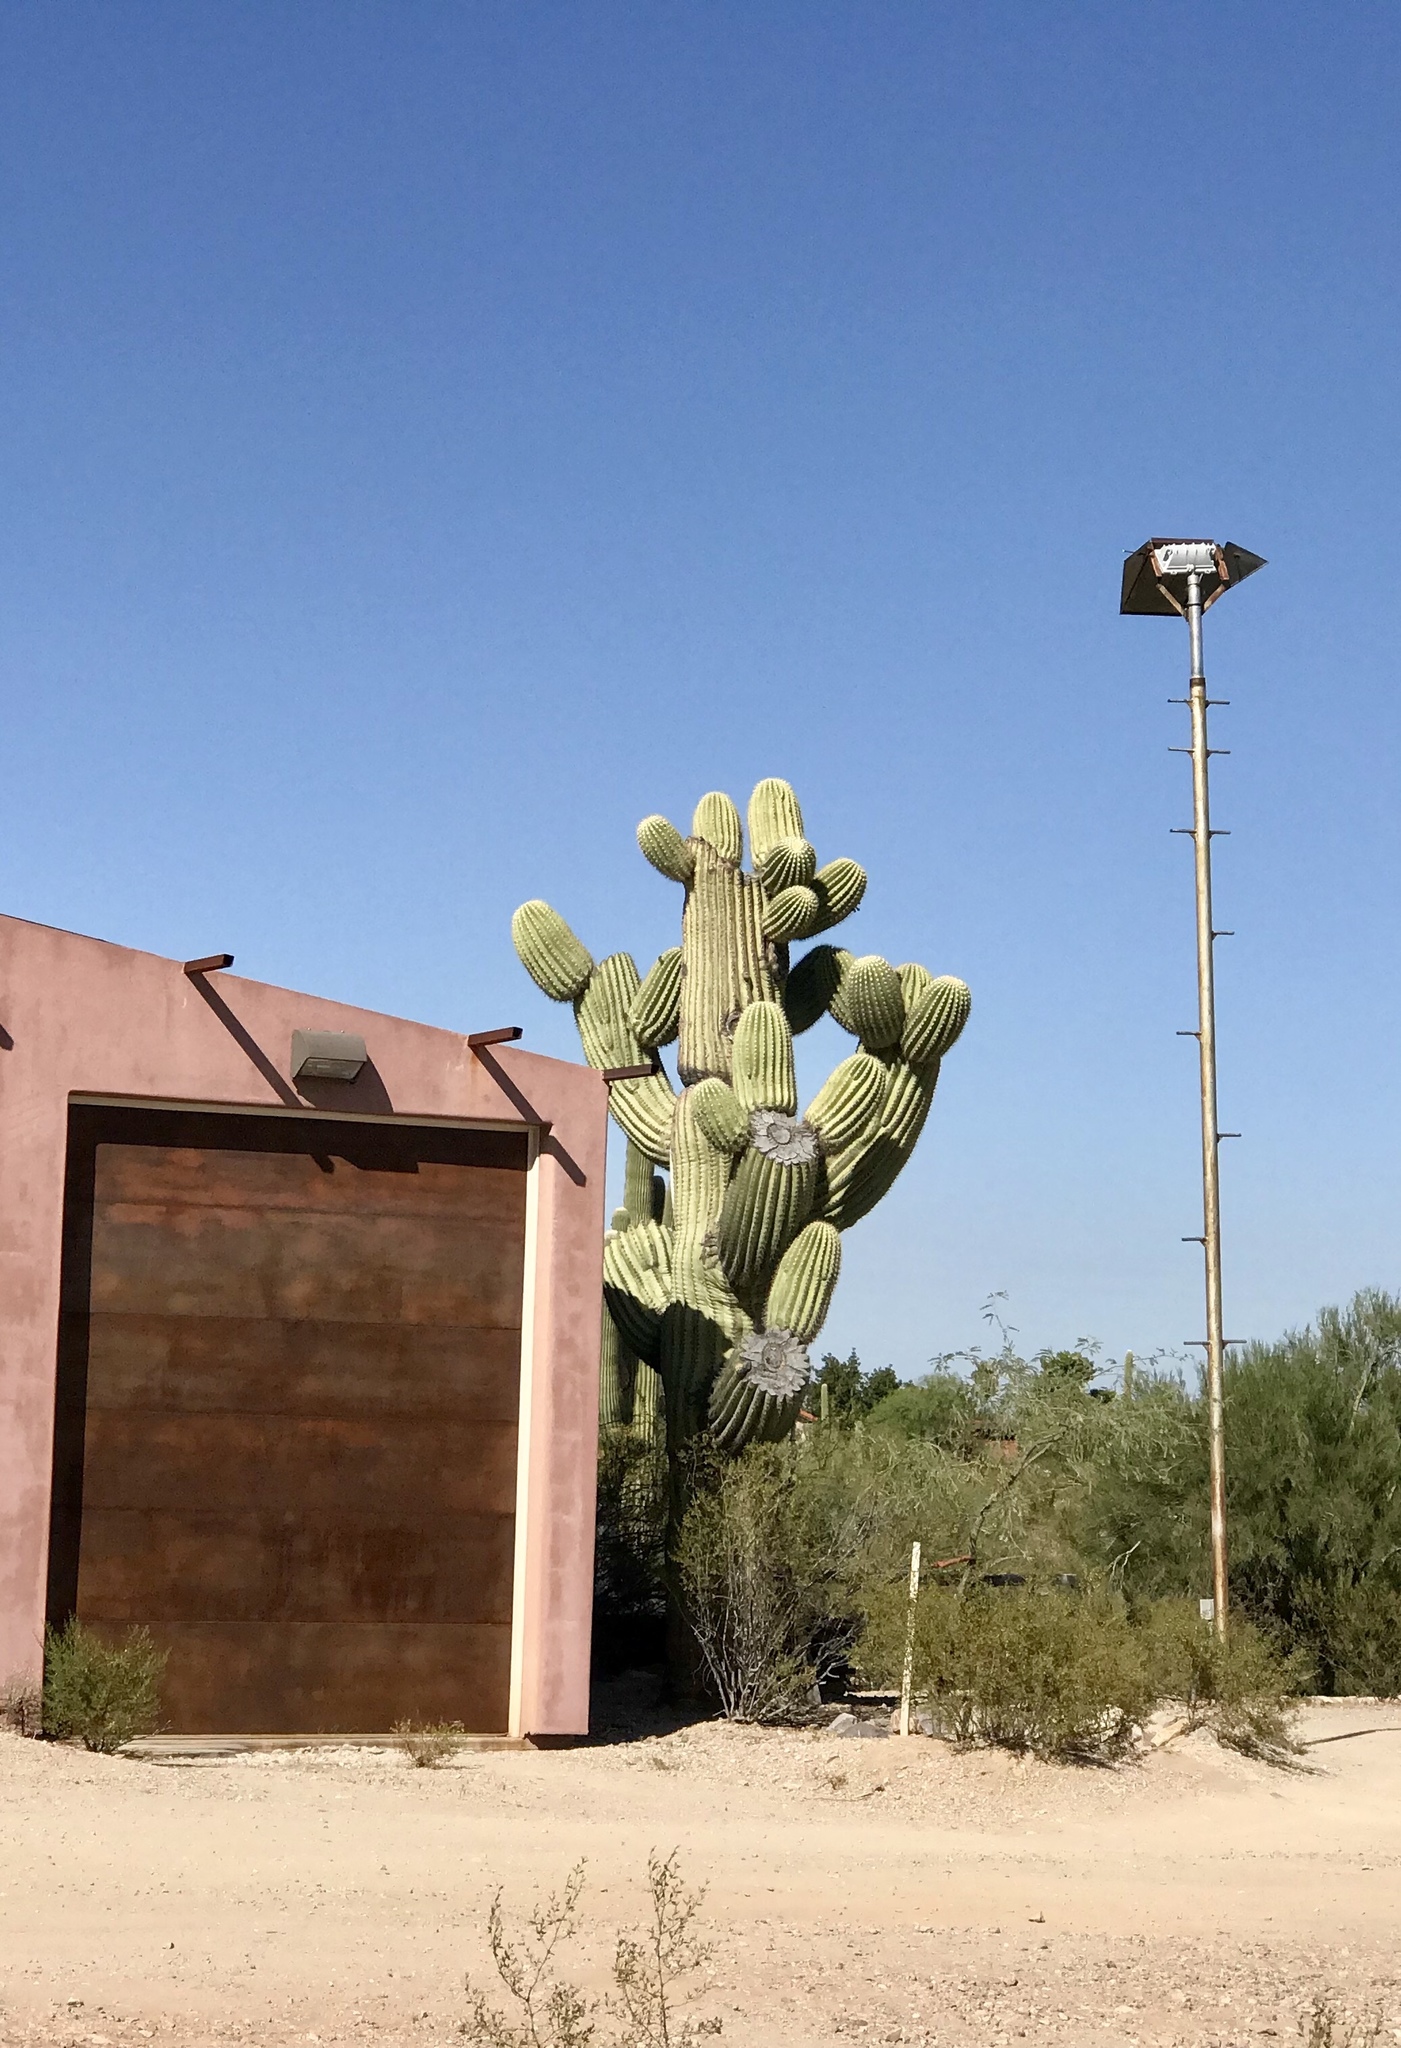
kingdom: Plantae
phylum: Tracheophyta
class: Magnoliopsida
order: Caryophyllales
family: Cactaceae
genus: Carnegiea
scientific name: Carnegiea gigantea
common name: Saguaro
